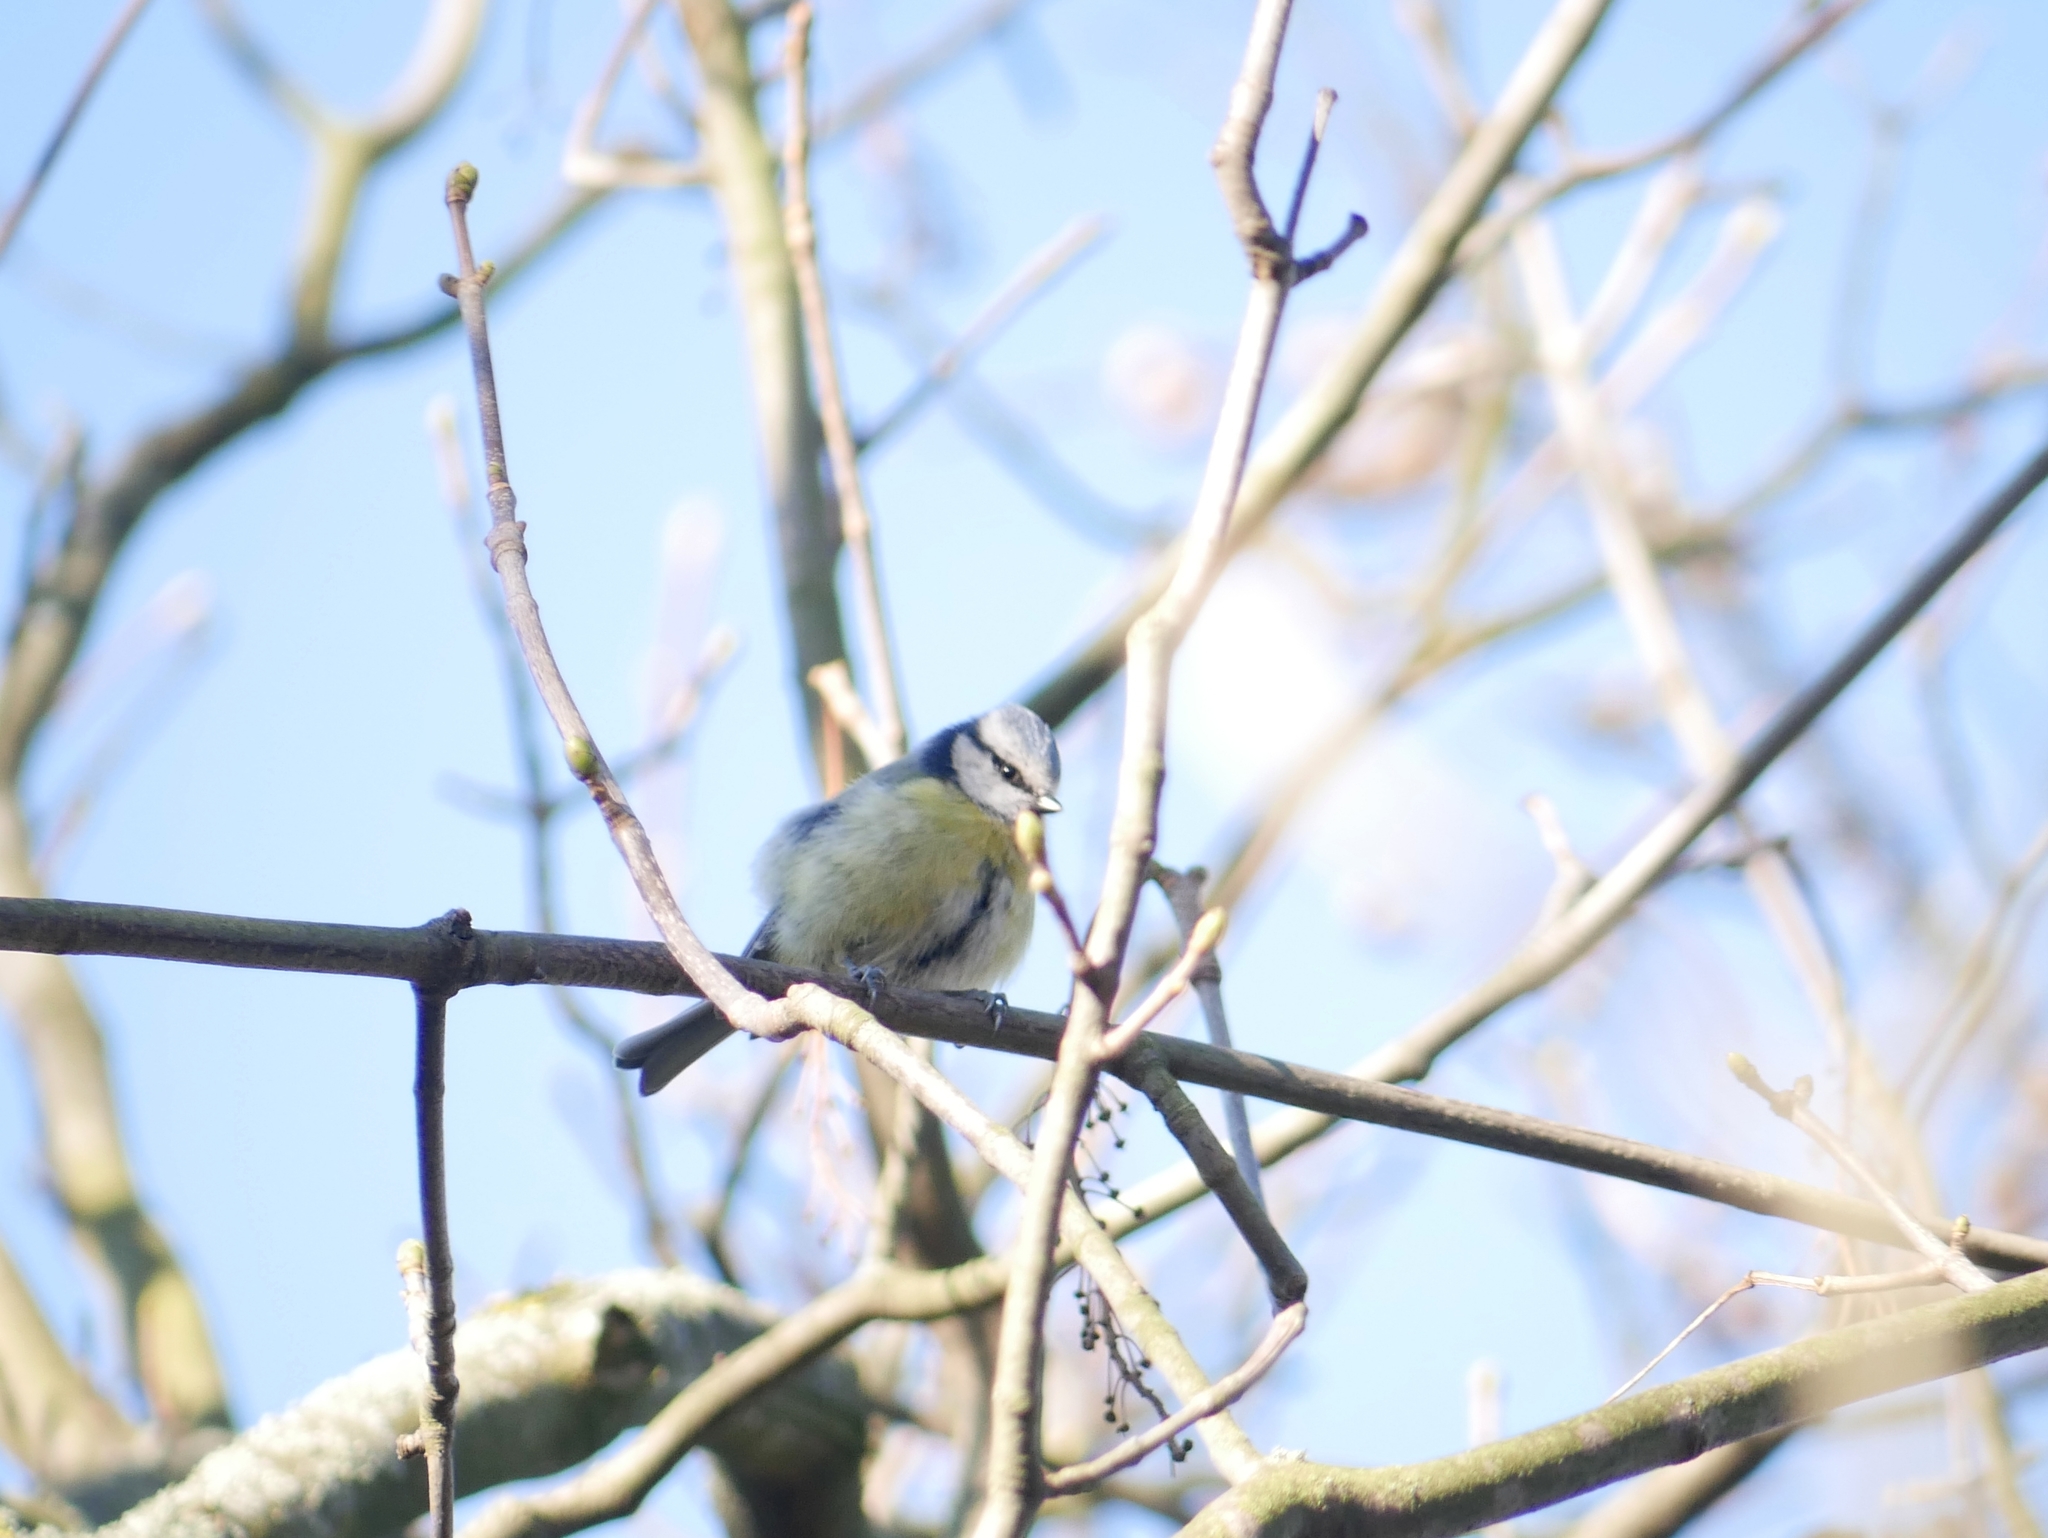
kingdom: Animalia
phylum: Chordata
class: Aves
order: Passeriformes
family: Paridae
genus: Cyanistes
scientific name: Cyanistes caeruleus
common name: Eurasian blue tit
